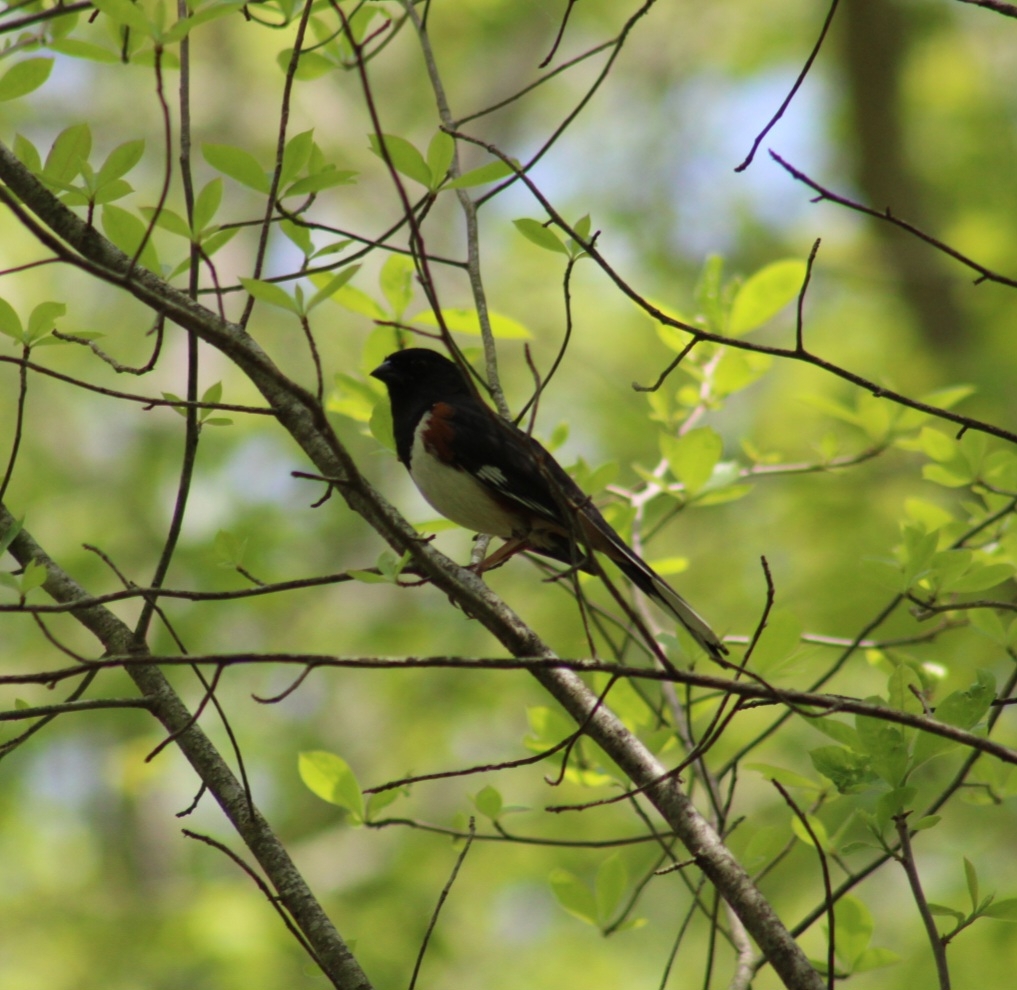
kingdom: Animalia
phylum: Chordata
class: Aves
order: Passeriformes
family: Passerellidae
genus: Pipilo
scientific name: Pipilo erythrophthalmus
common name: Eastern towhee
